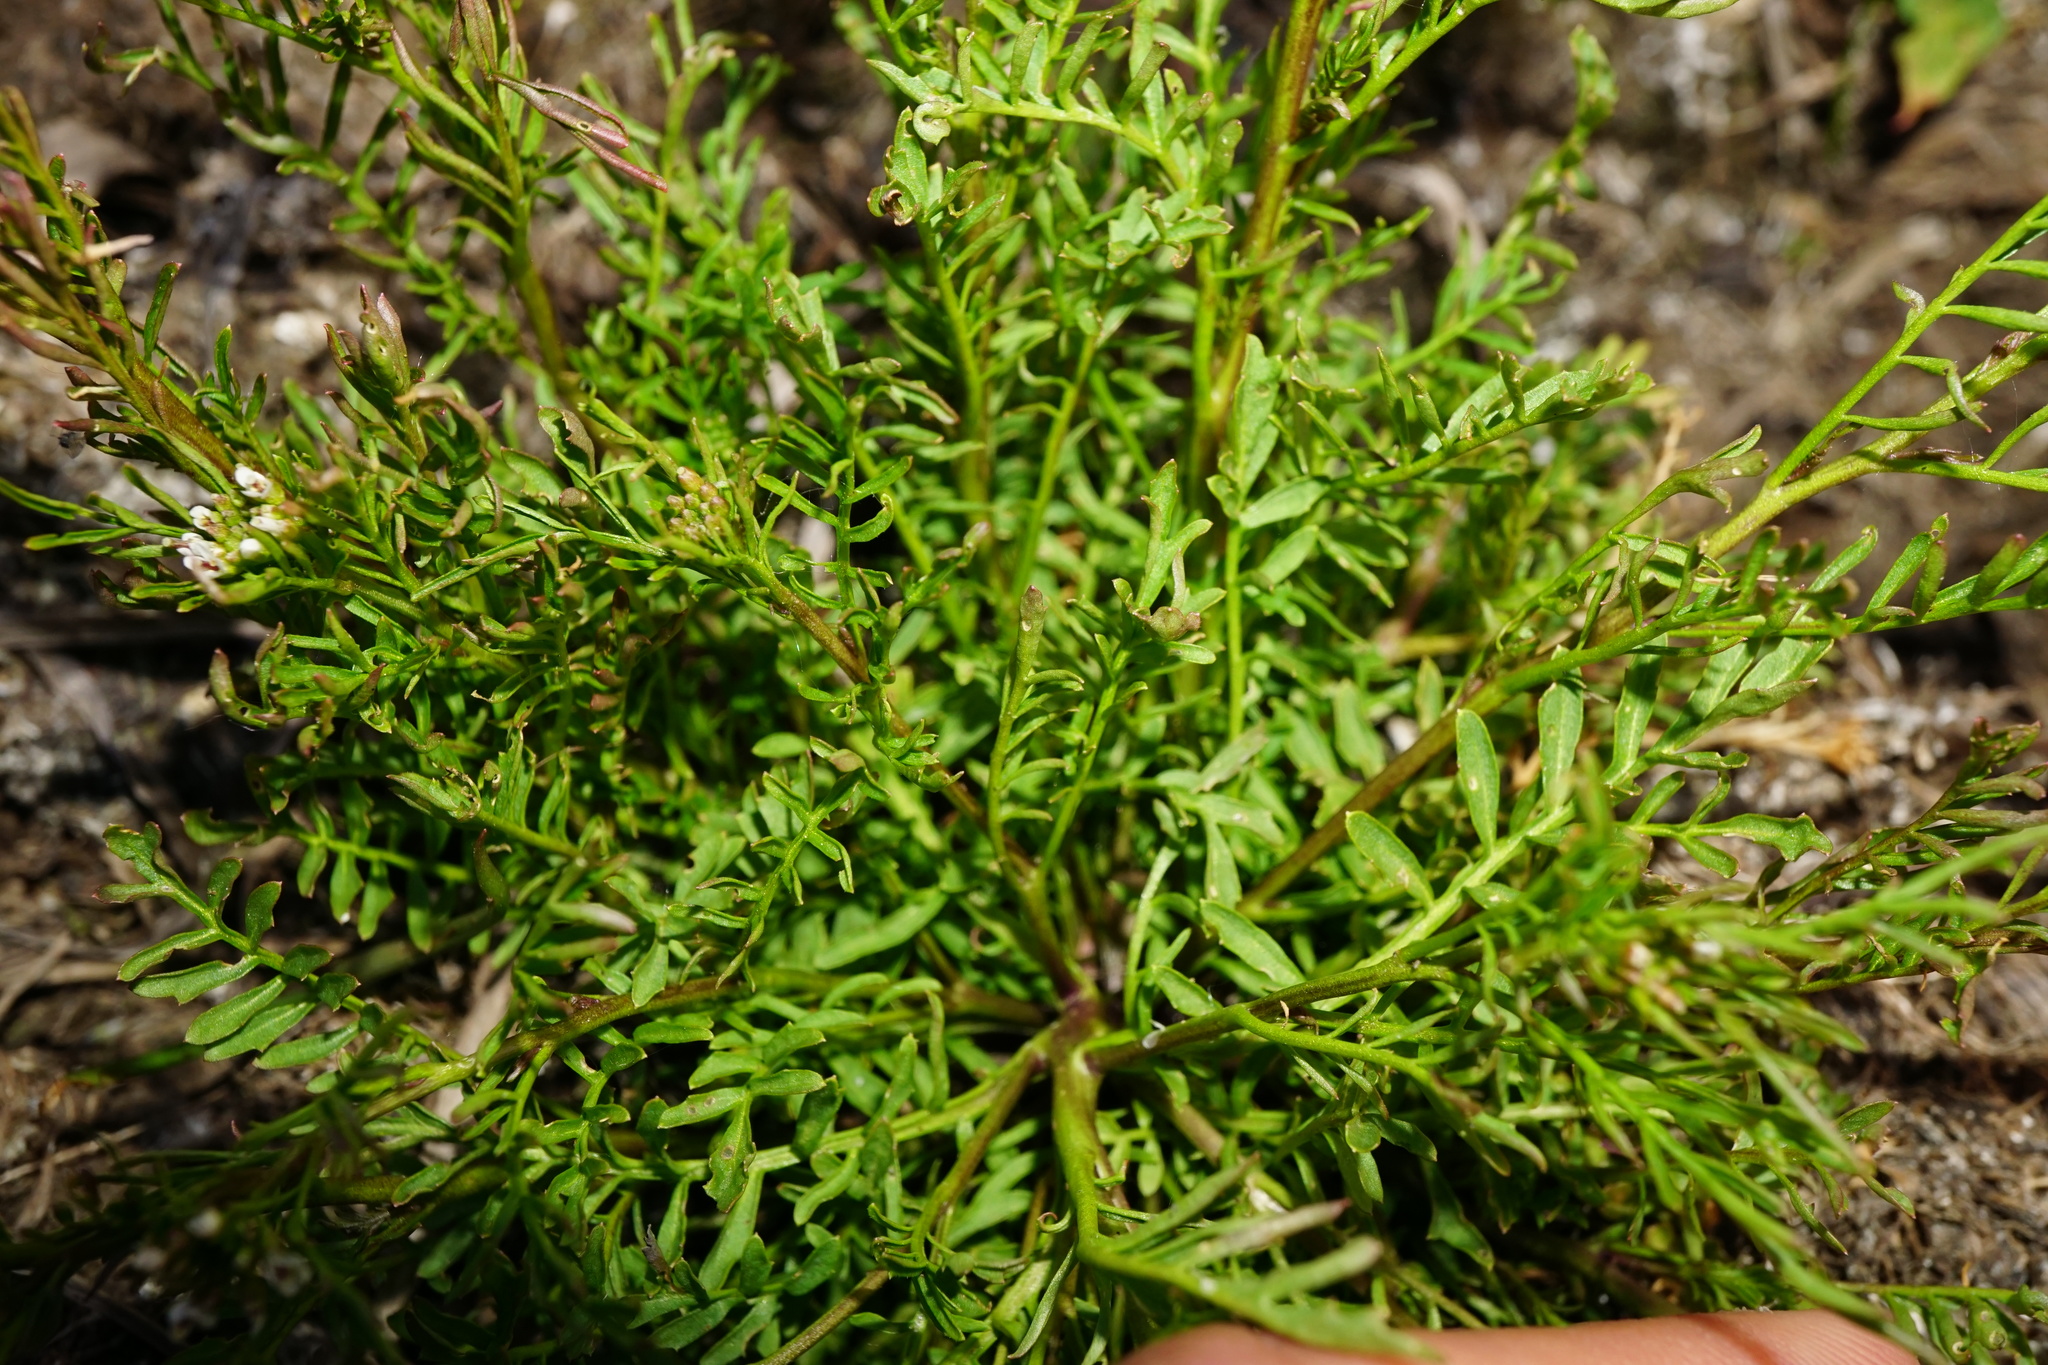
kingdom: Plantae
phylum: Tracheophyta
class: Magnoliopsida
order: Brassicales
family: Brassicaceae
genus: Cardamine
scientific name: Cardamine parviflora
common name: Sand bittercress
